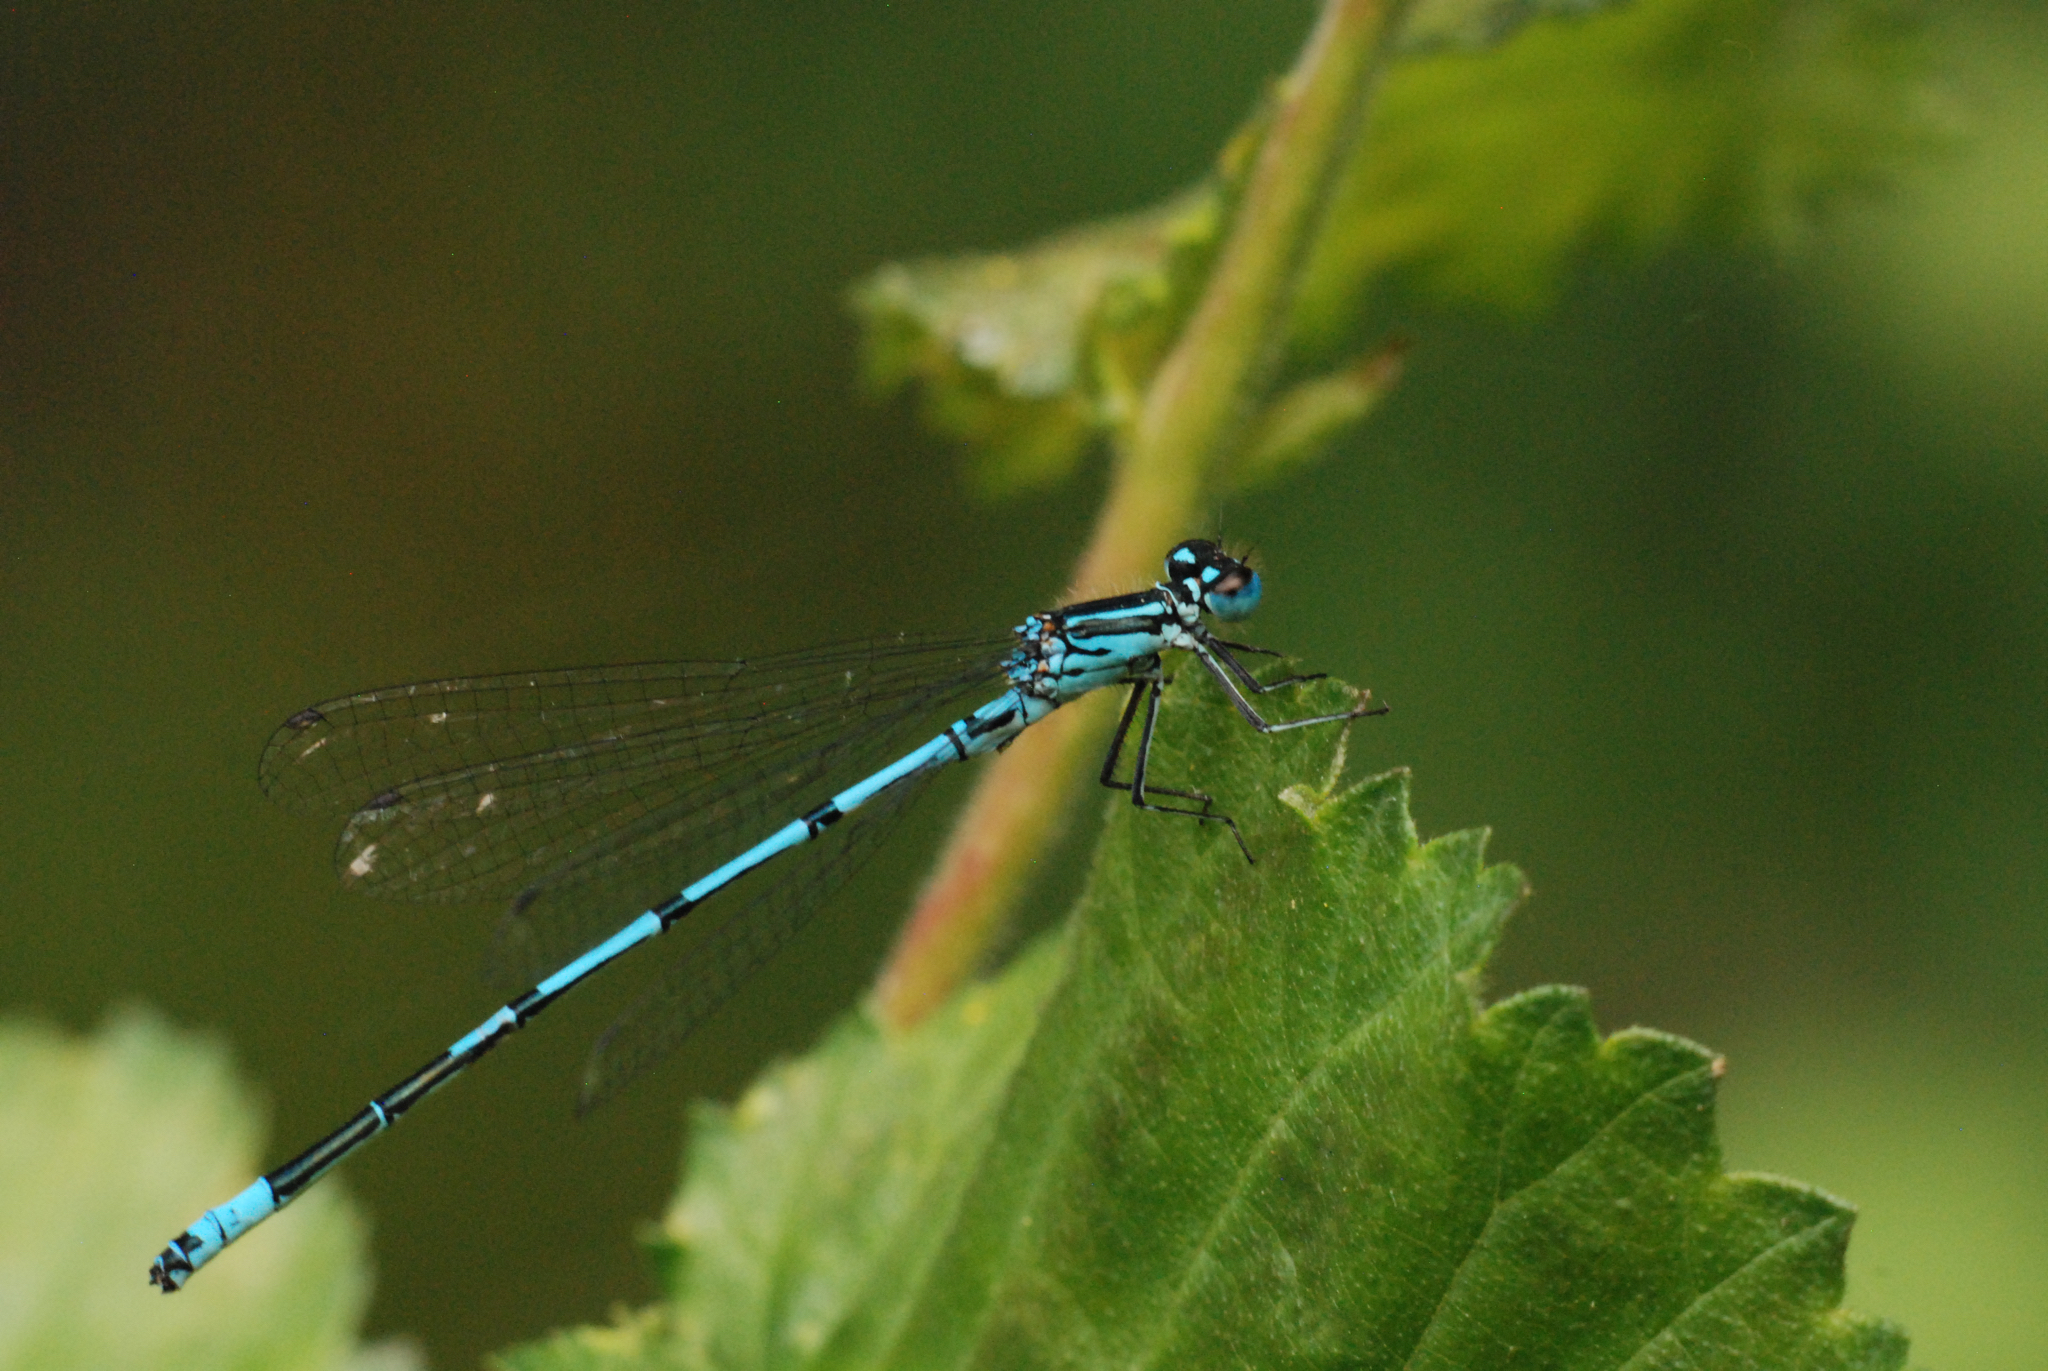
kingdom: Animalia
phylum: Arthropoda
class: Insecta
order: Odonata
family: Coenagrionidae
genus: Coenagrion
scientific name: Coenagrion puella
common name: Azure damselfly
